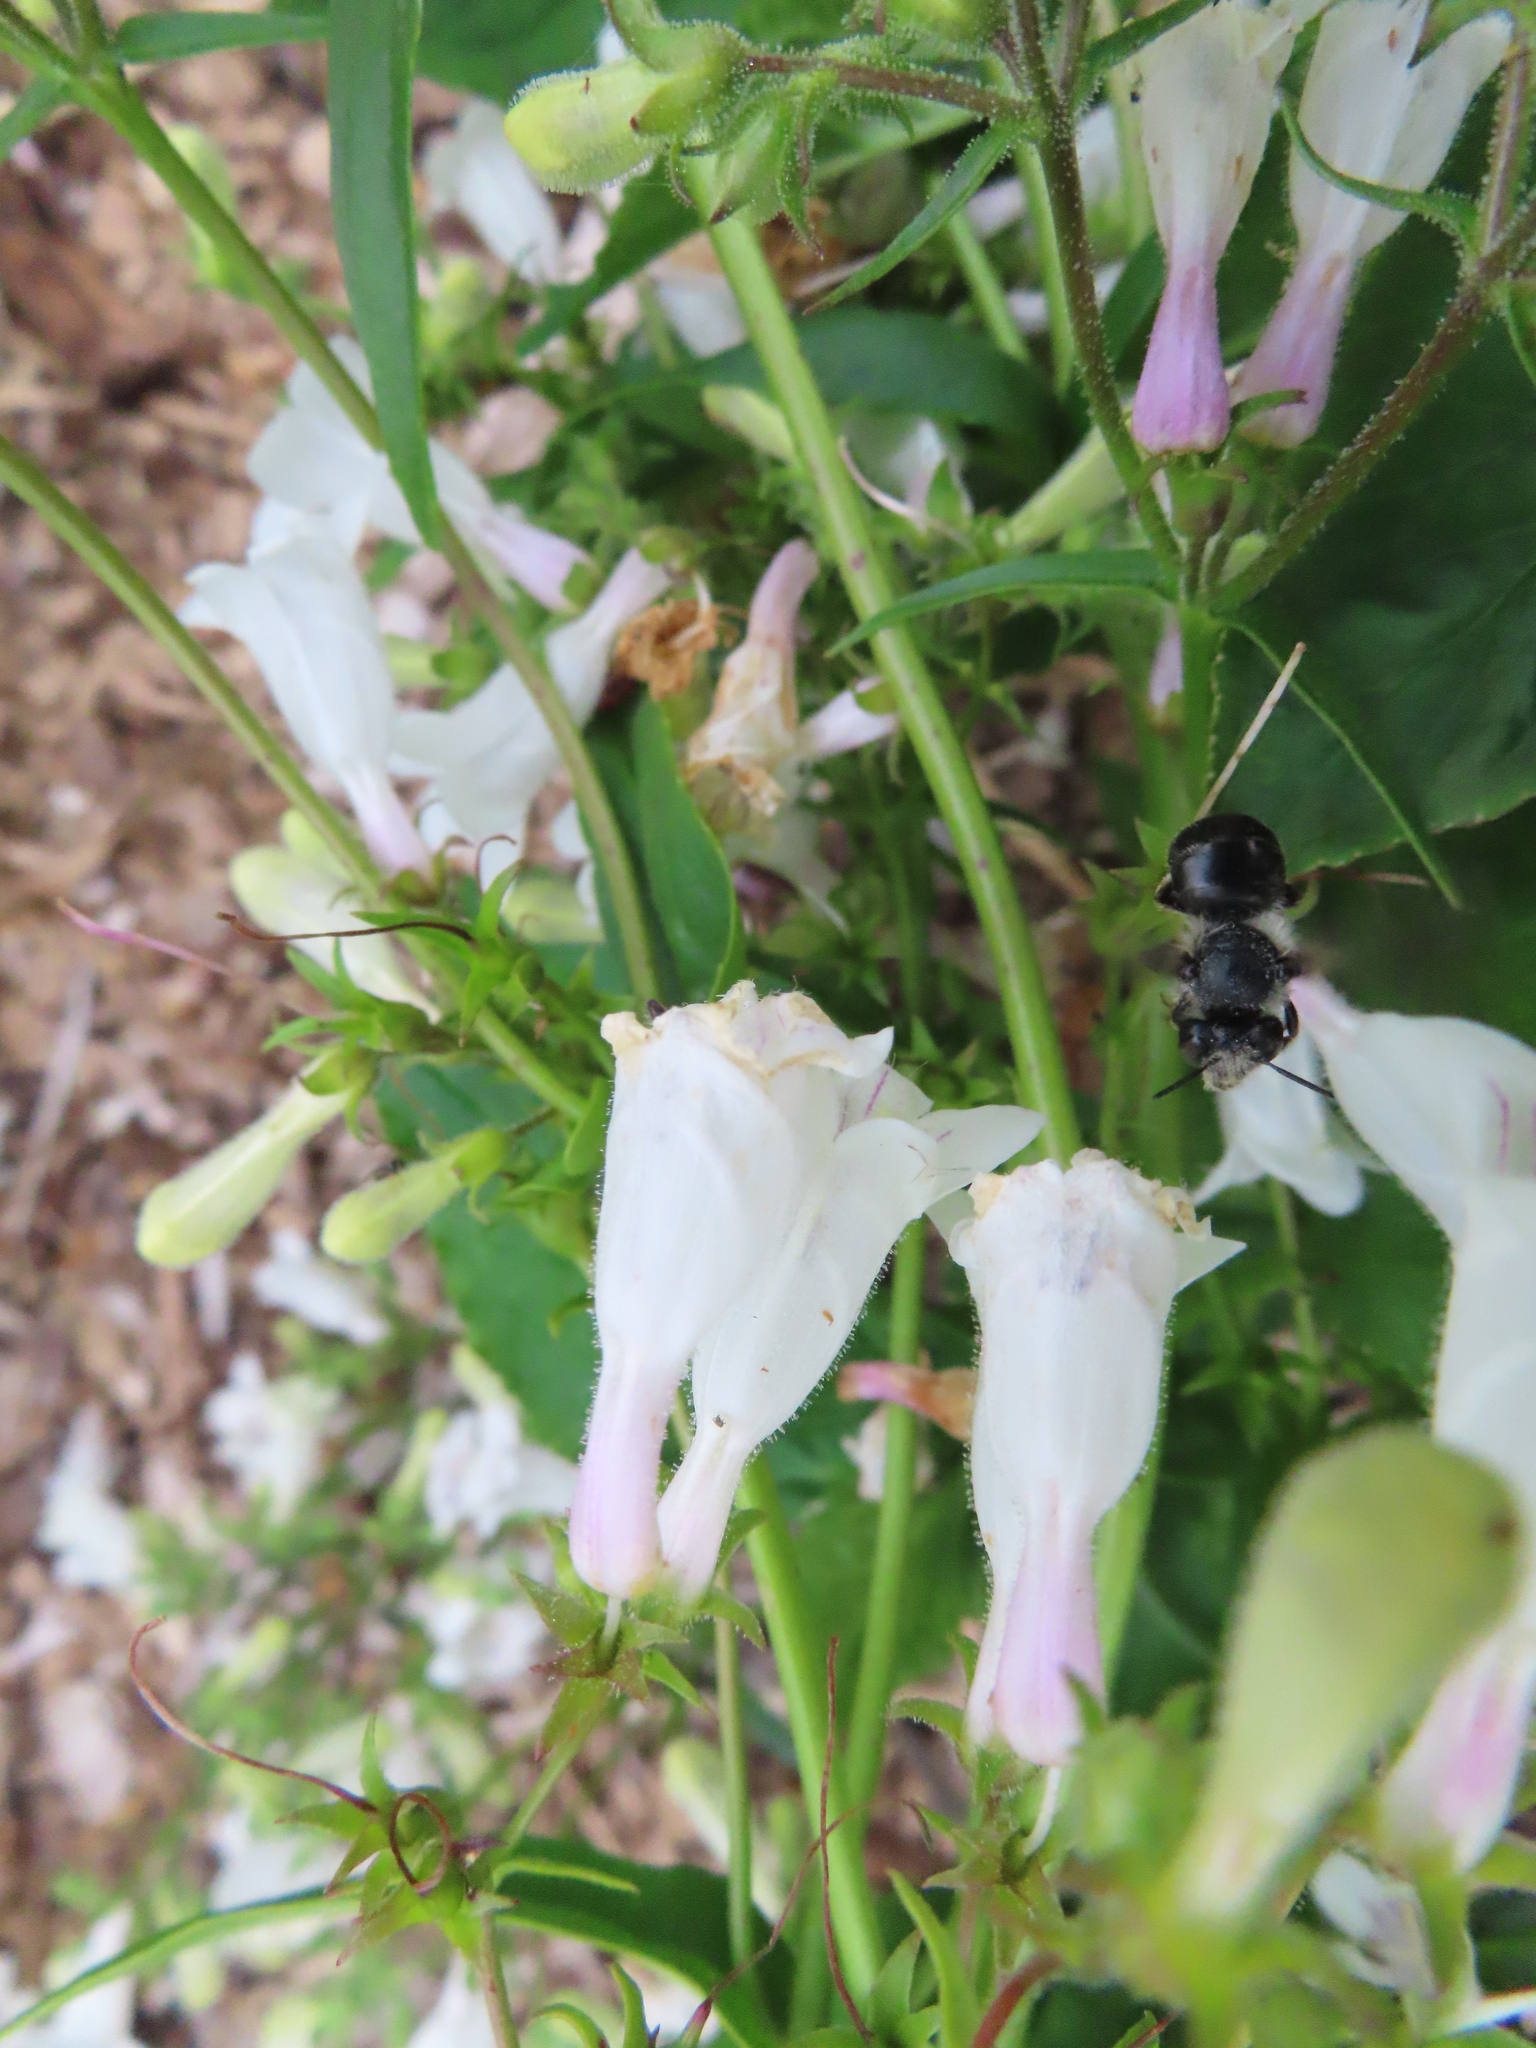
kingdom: Animalia
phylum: Arthropoda
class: Insecta
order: Hymenoptera
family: Apidae
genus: Anthophora
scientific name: Anthophora terminalis
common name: Orange-tipped wood-digger bee
